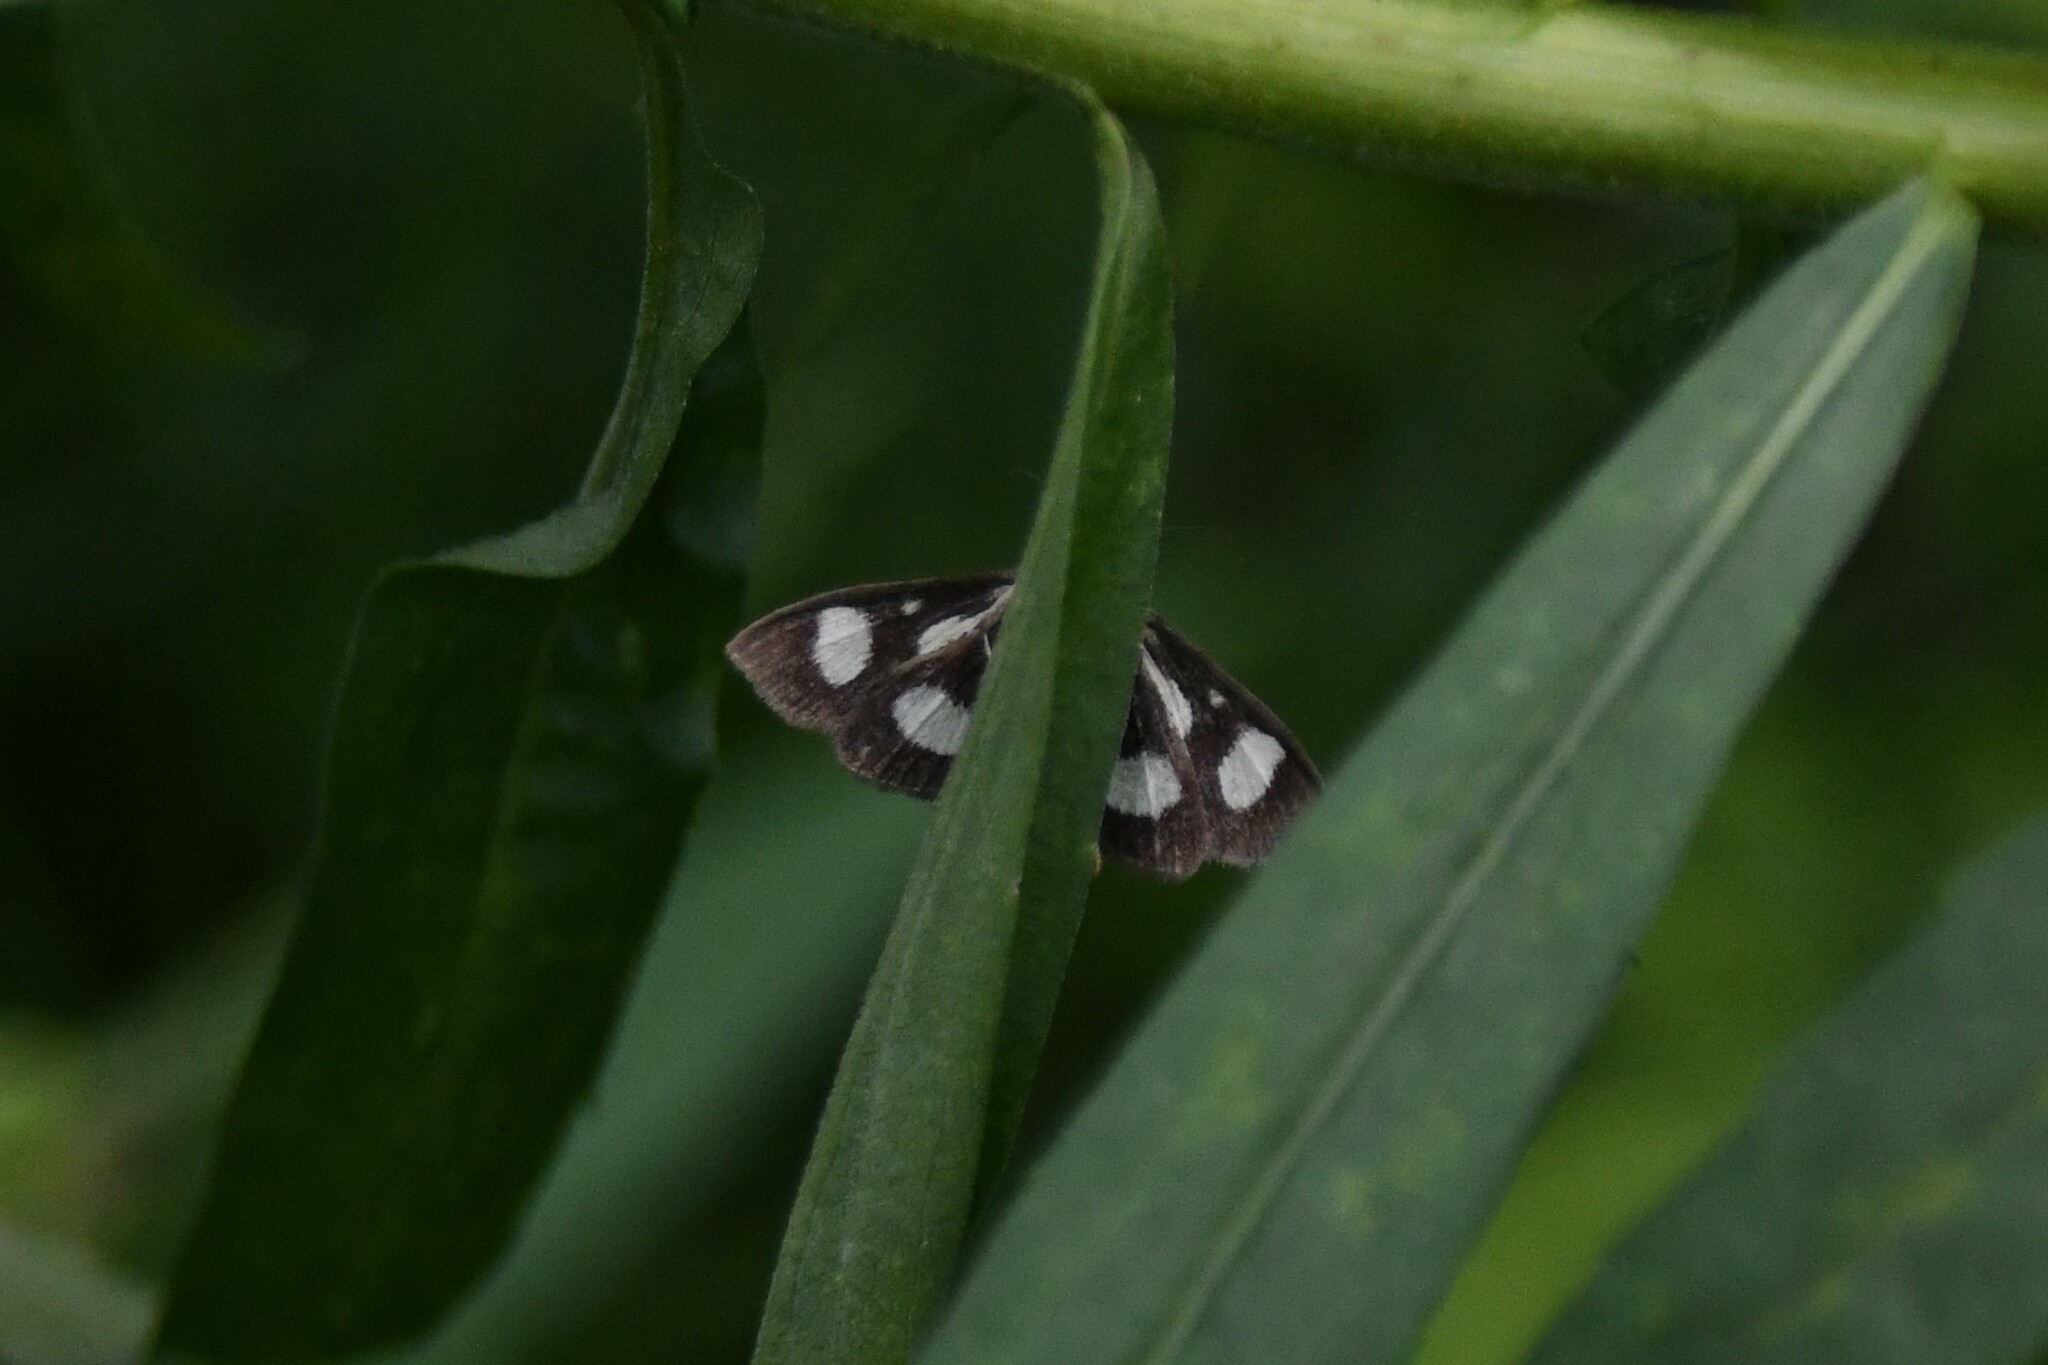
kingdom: Animalia
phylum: Arthropoda
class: Insecta
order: Lepidoptera
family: Crambidae
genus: Anania
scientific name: Anania funebris
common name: White-spotted sable moth
